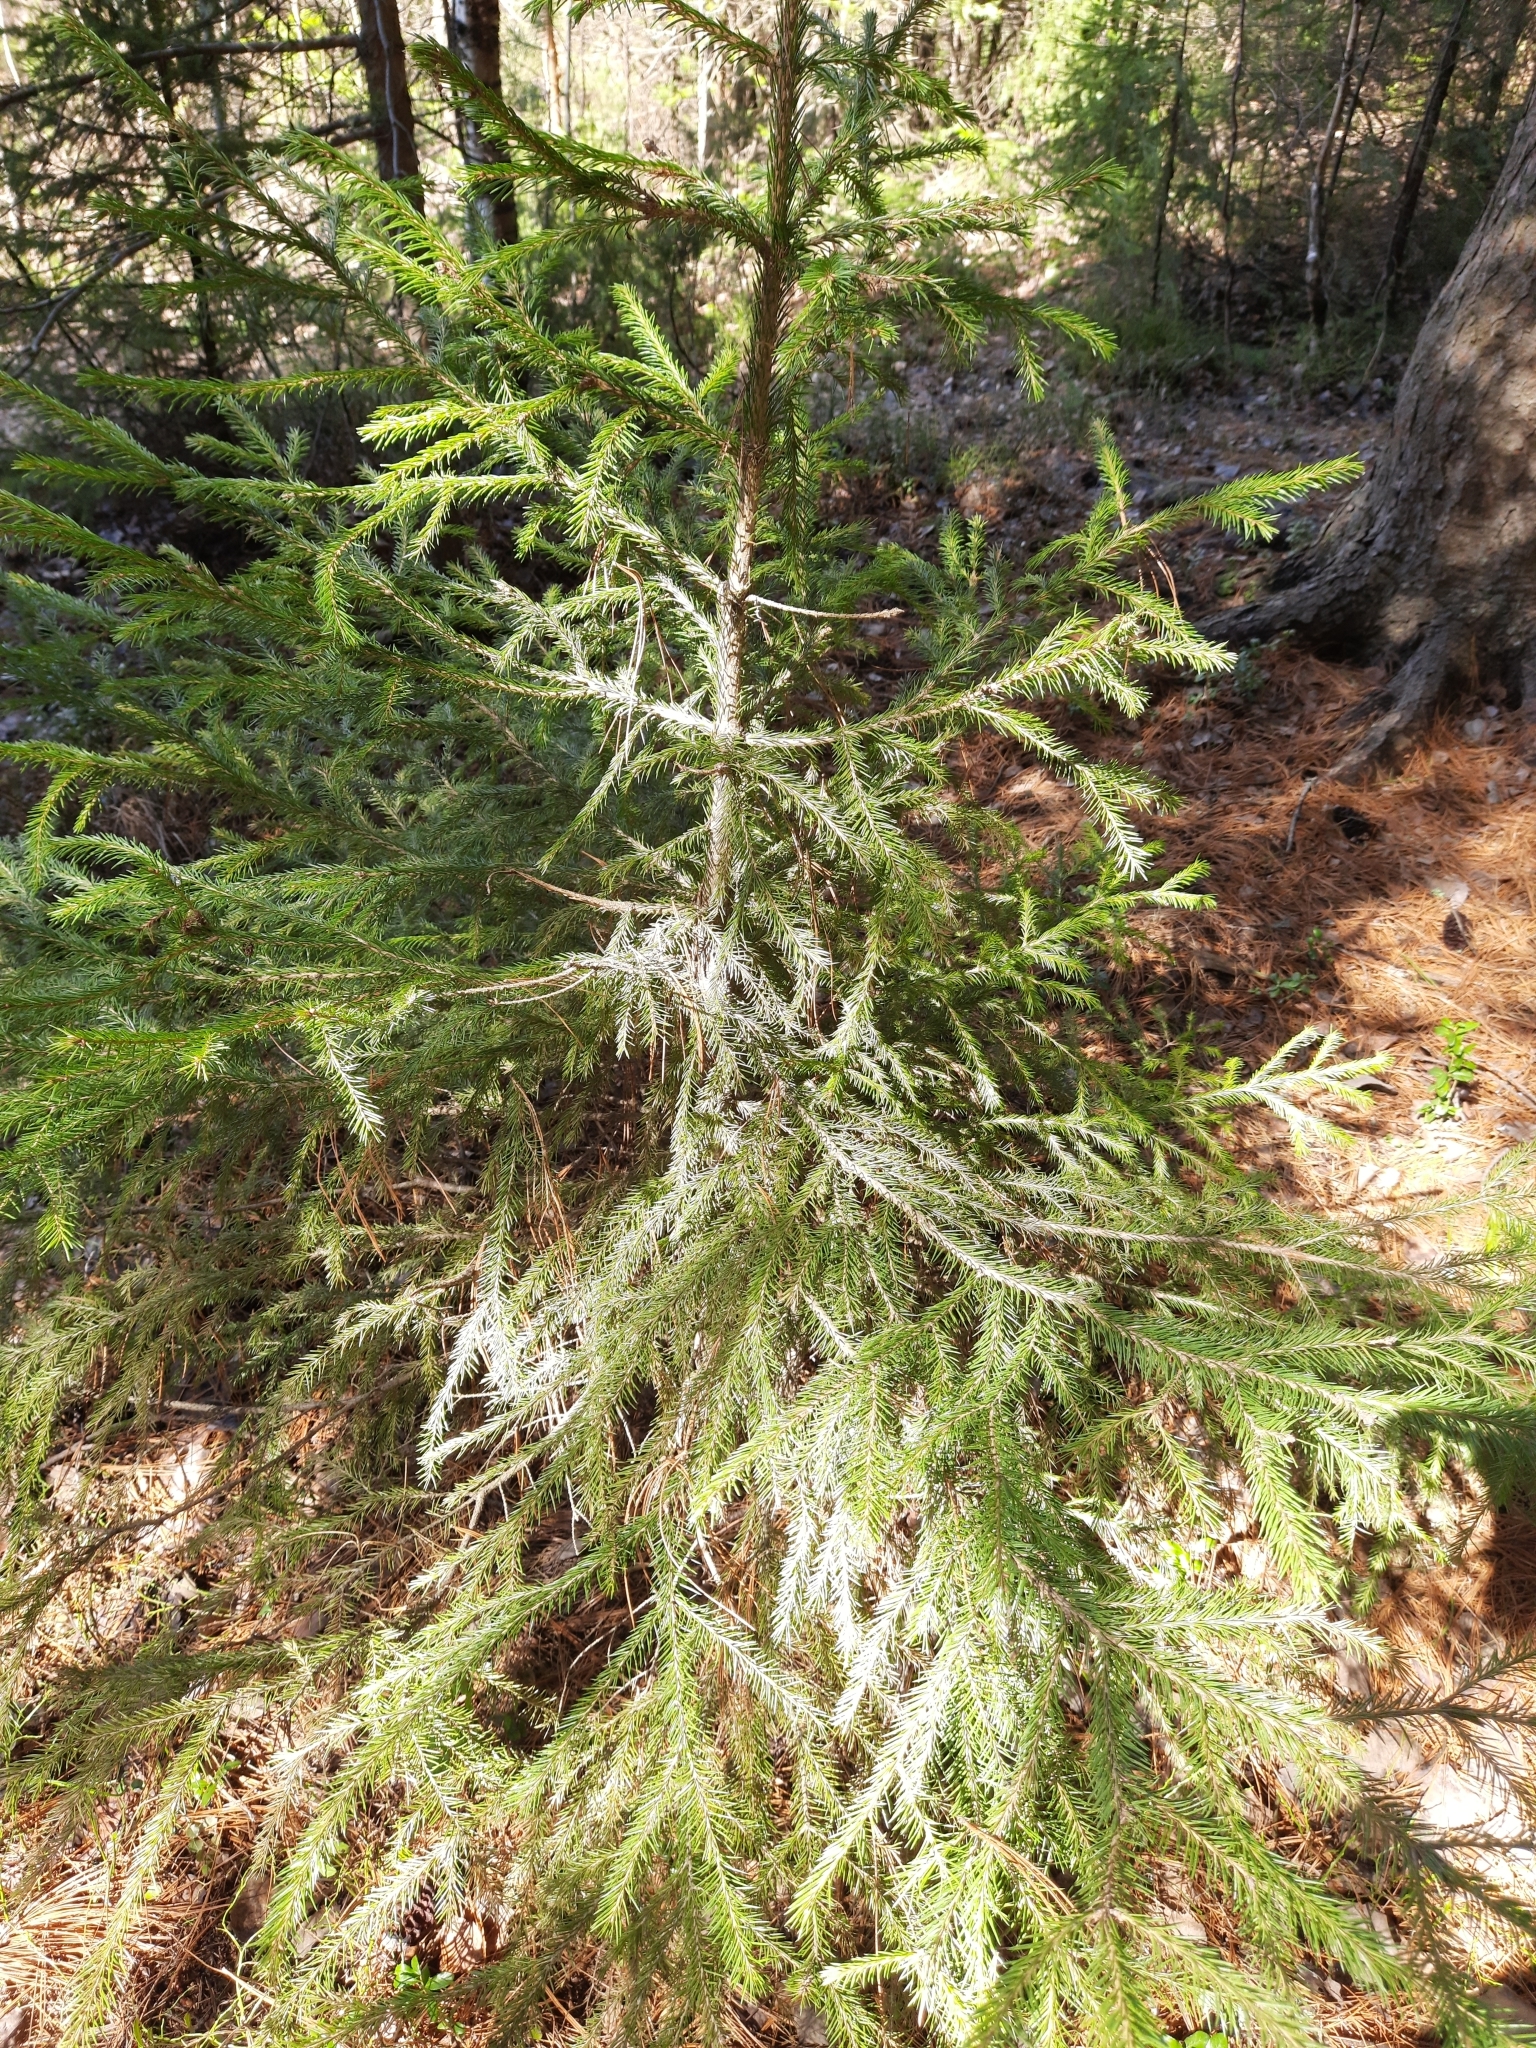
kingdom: Plantae
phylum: Tracheophyta
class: Pinopsida
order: Pinales
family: Pinaceae
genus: Picea
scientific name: Picea obovata
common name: Siberian spruce
